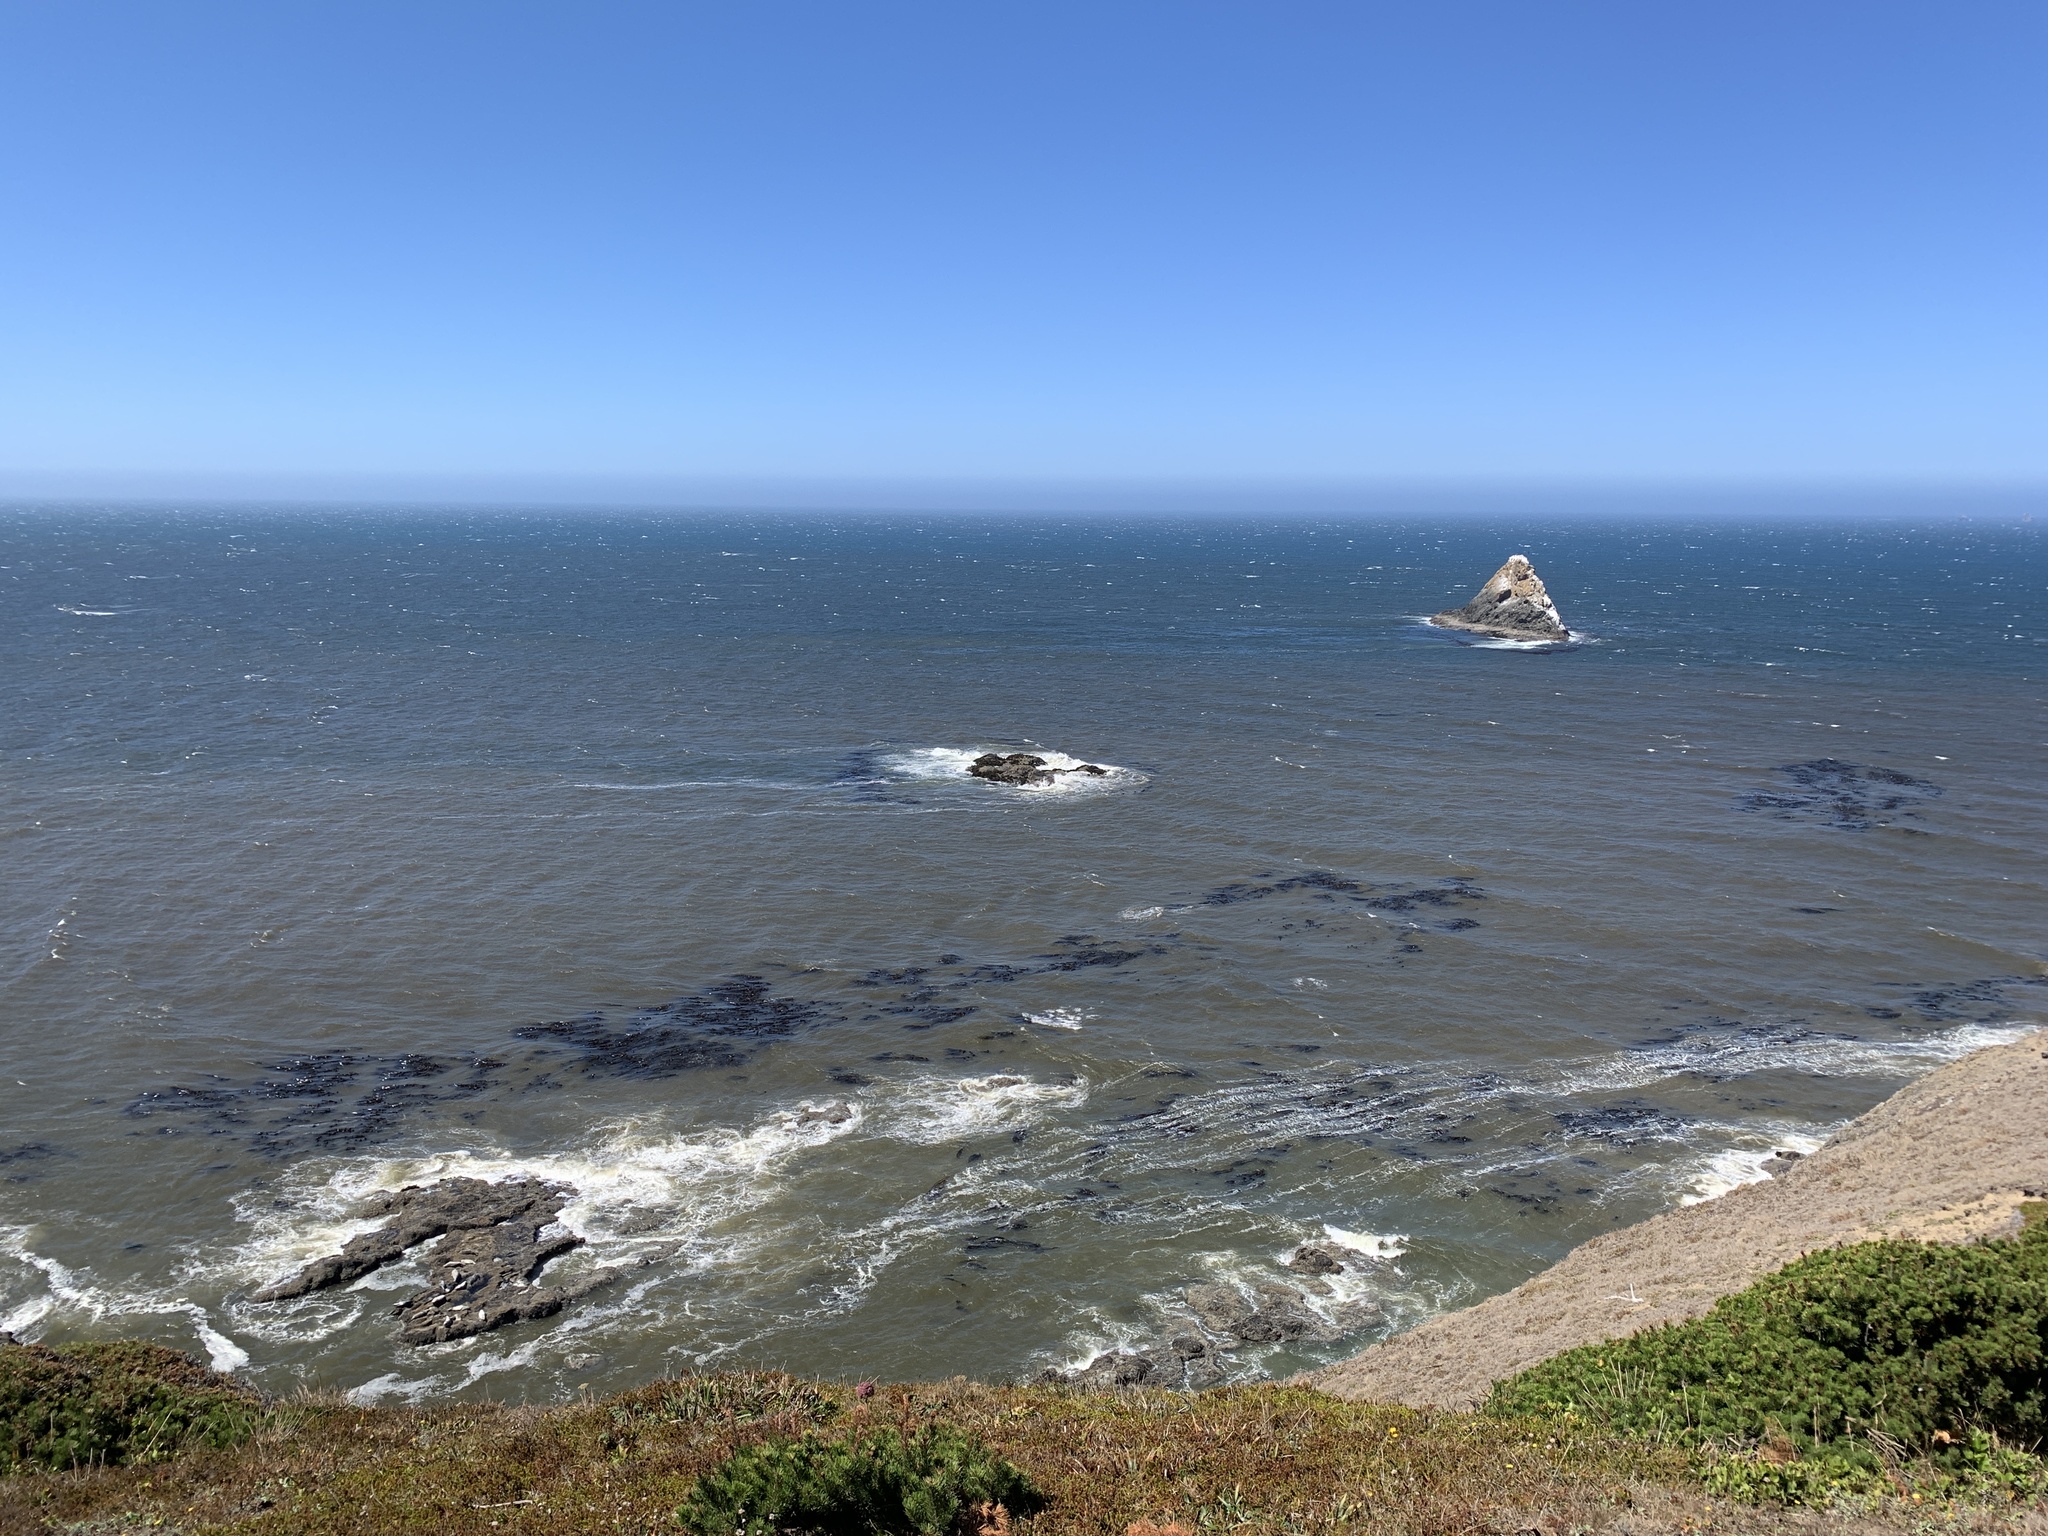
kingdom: Animalia
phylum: Chordata
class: Mammalia
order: Carnivora
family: Phocidae
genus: Phoca
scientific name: Phoca vitulina
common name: Harbor seal
